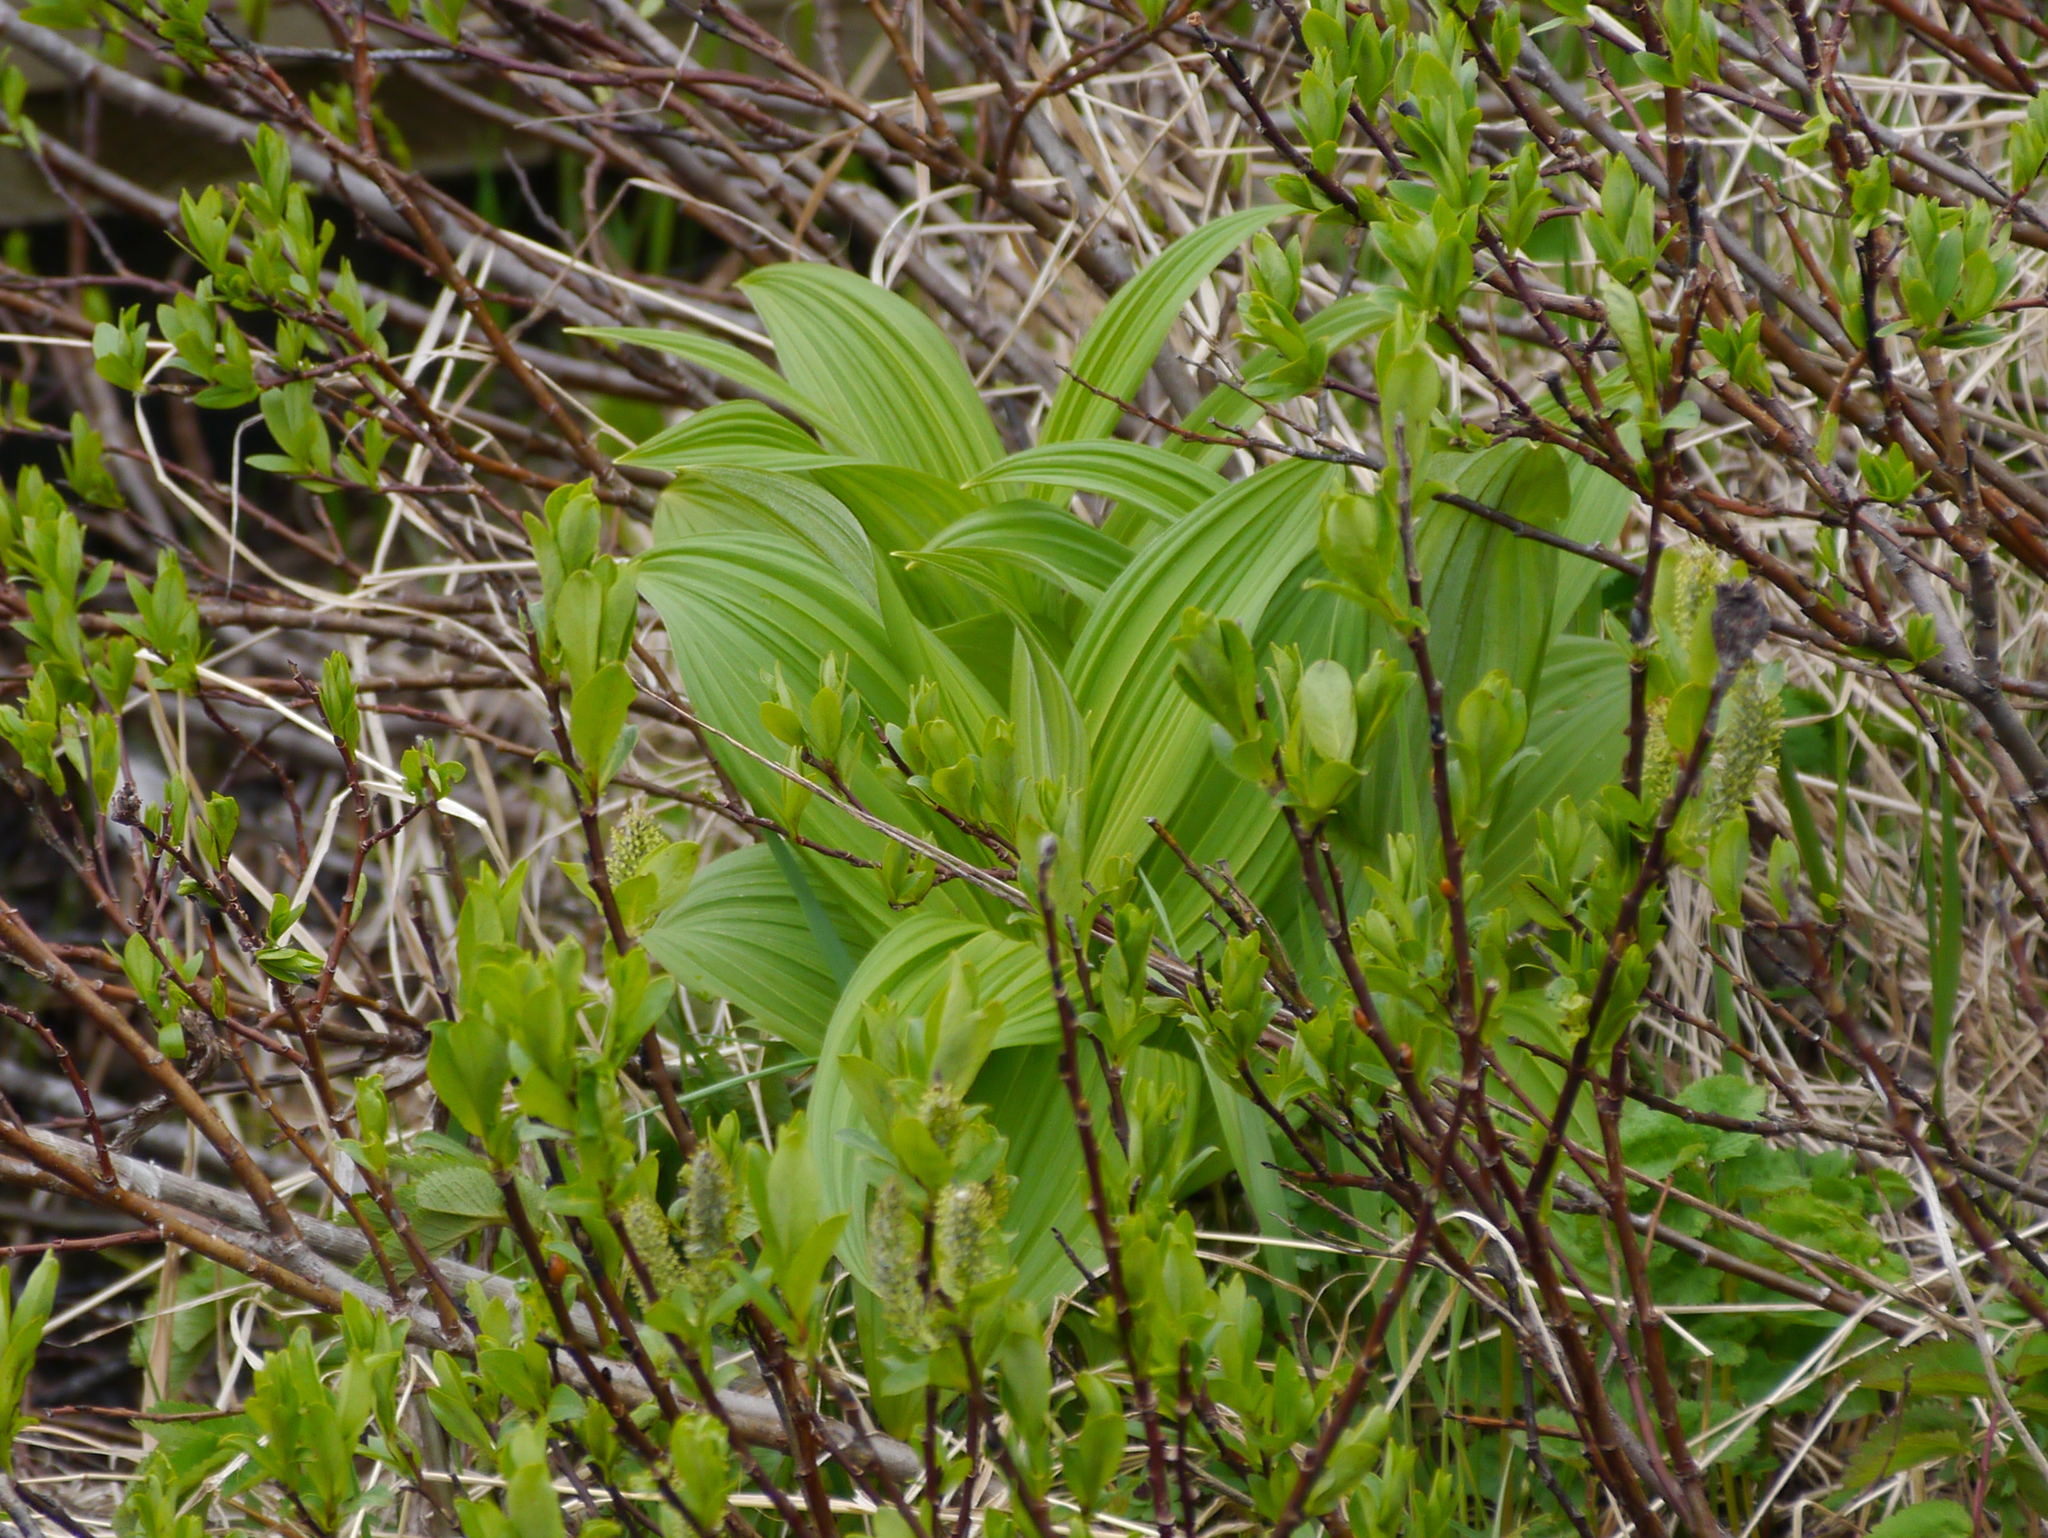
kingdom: Plantae
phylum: Tracheophyta
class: Liliopsida
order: Liliales
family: Melanthiaceae
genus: Veratrum
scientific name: Veratrum viride
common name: American false hellebore
